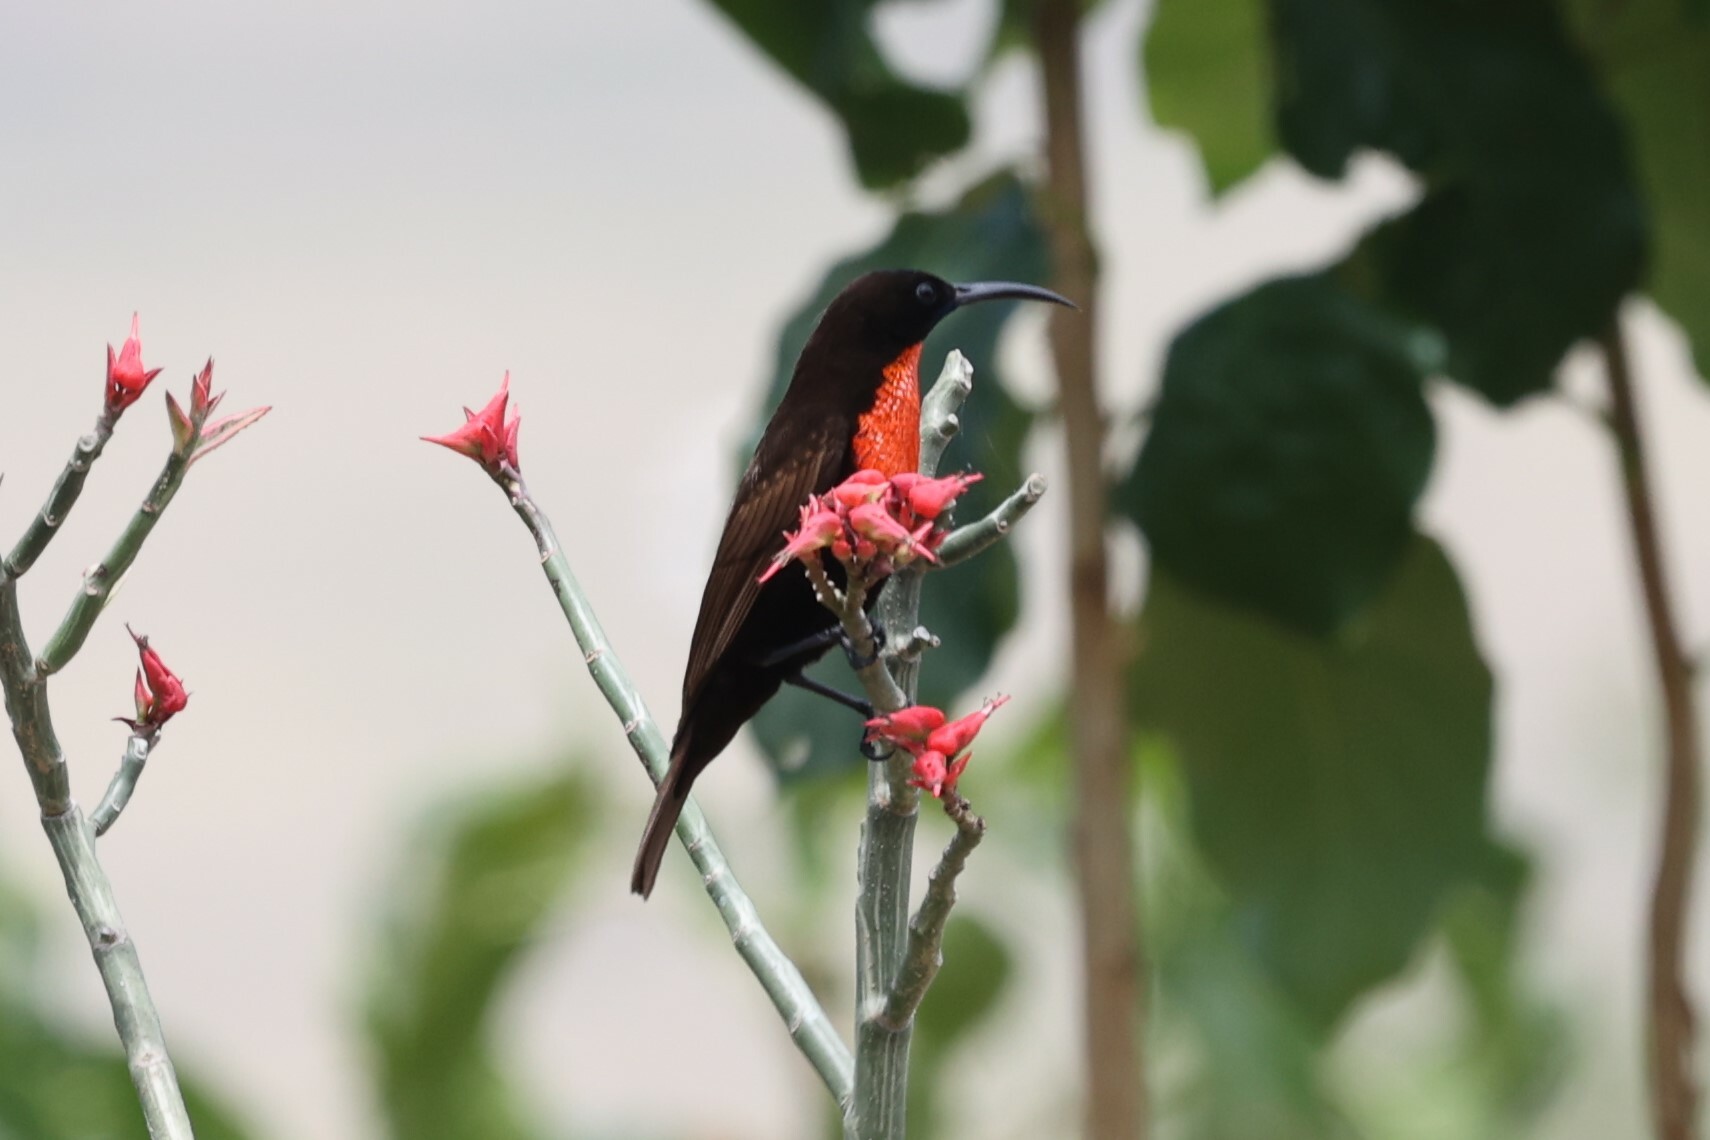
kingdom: Animalia
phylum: Chordata
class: Aves
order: Passeriformes
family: Nectariniidae
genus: Chalcomitra
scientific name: Chalcomitra senegalensis
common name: Scarlet-chested sunbird
